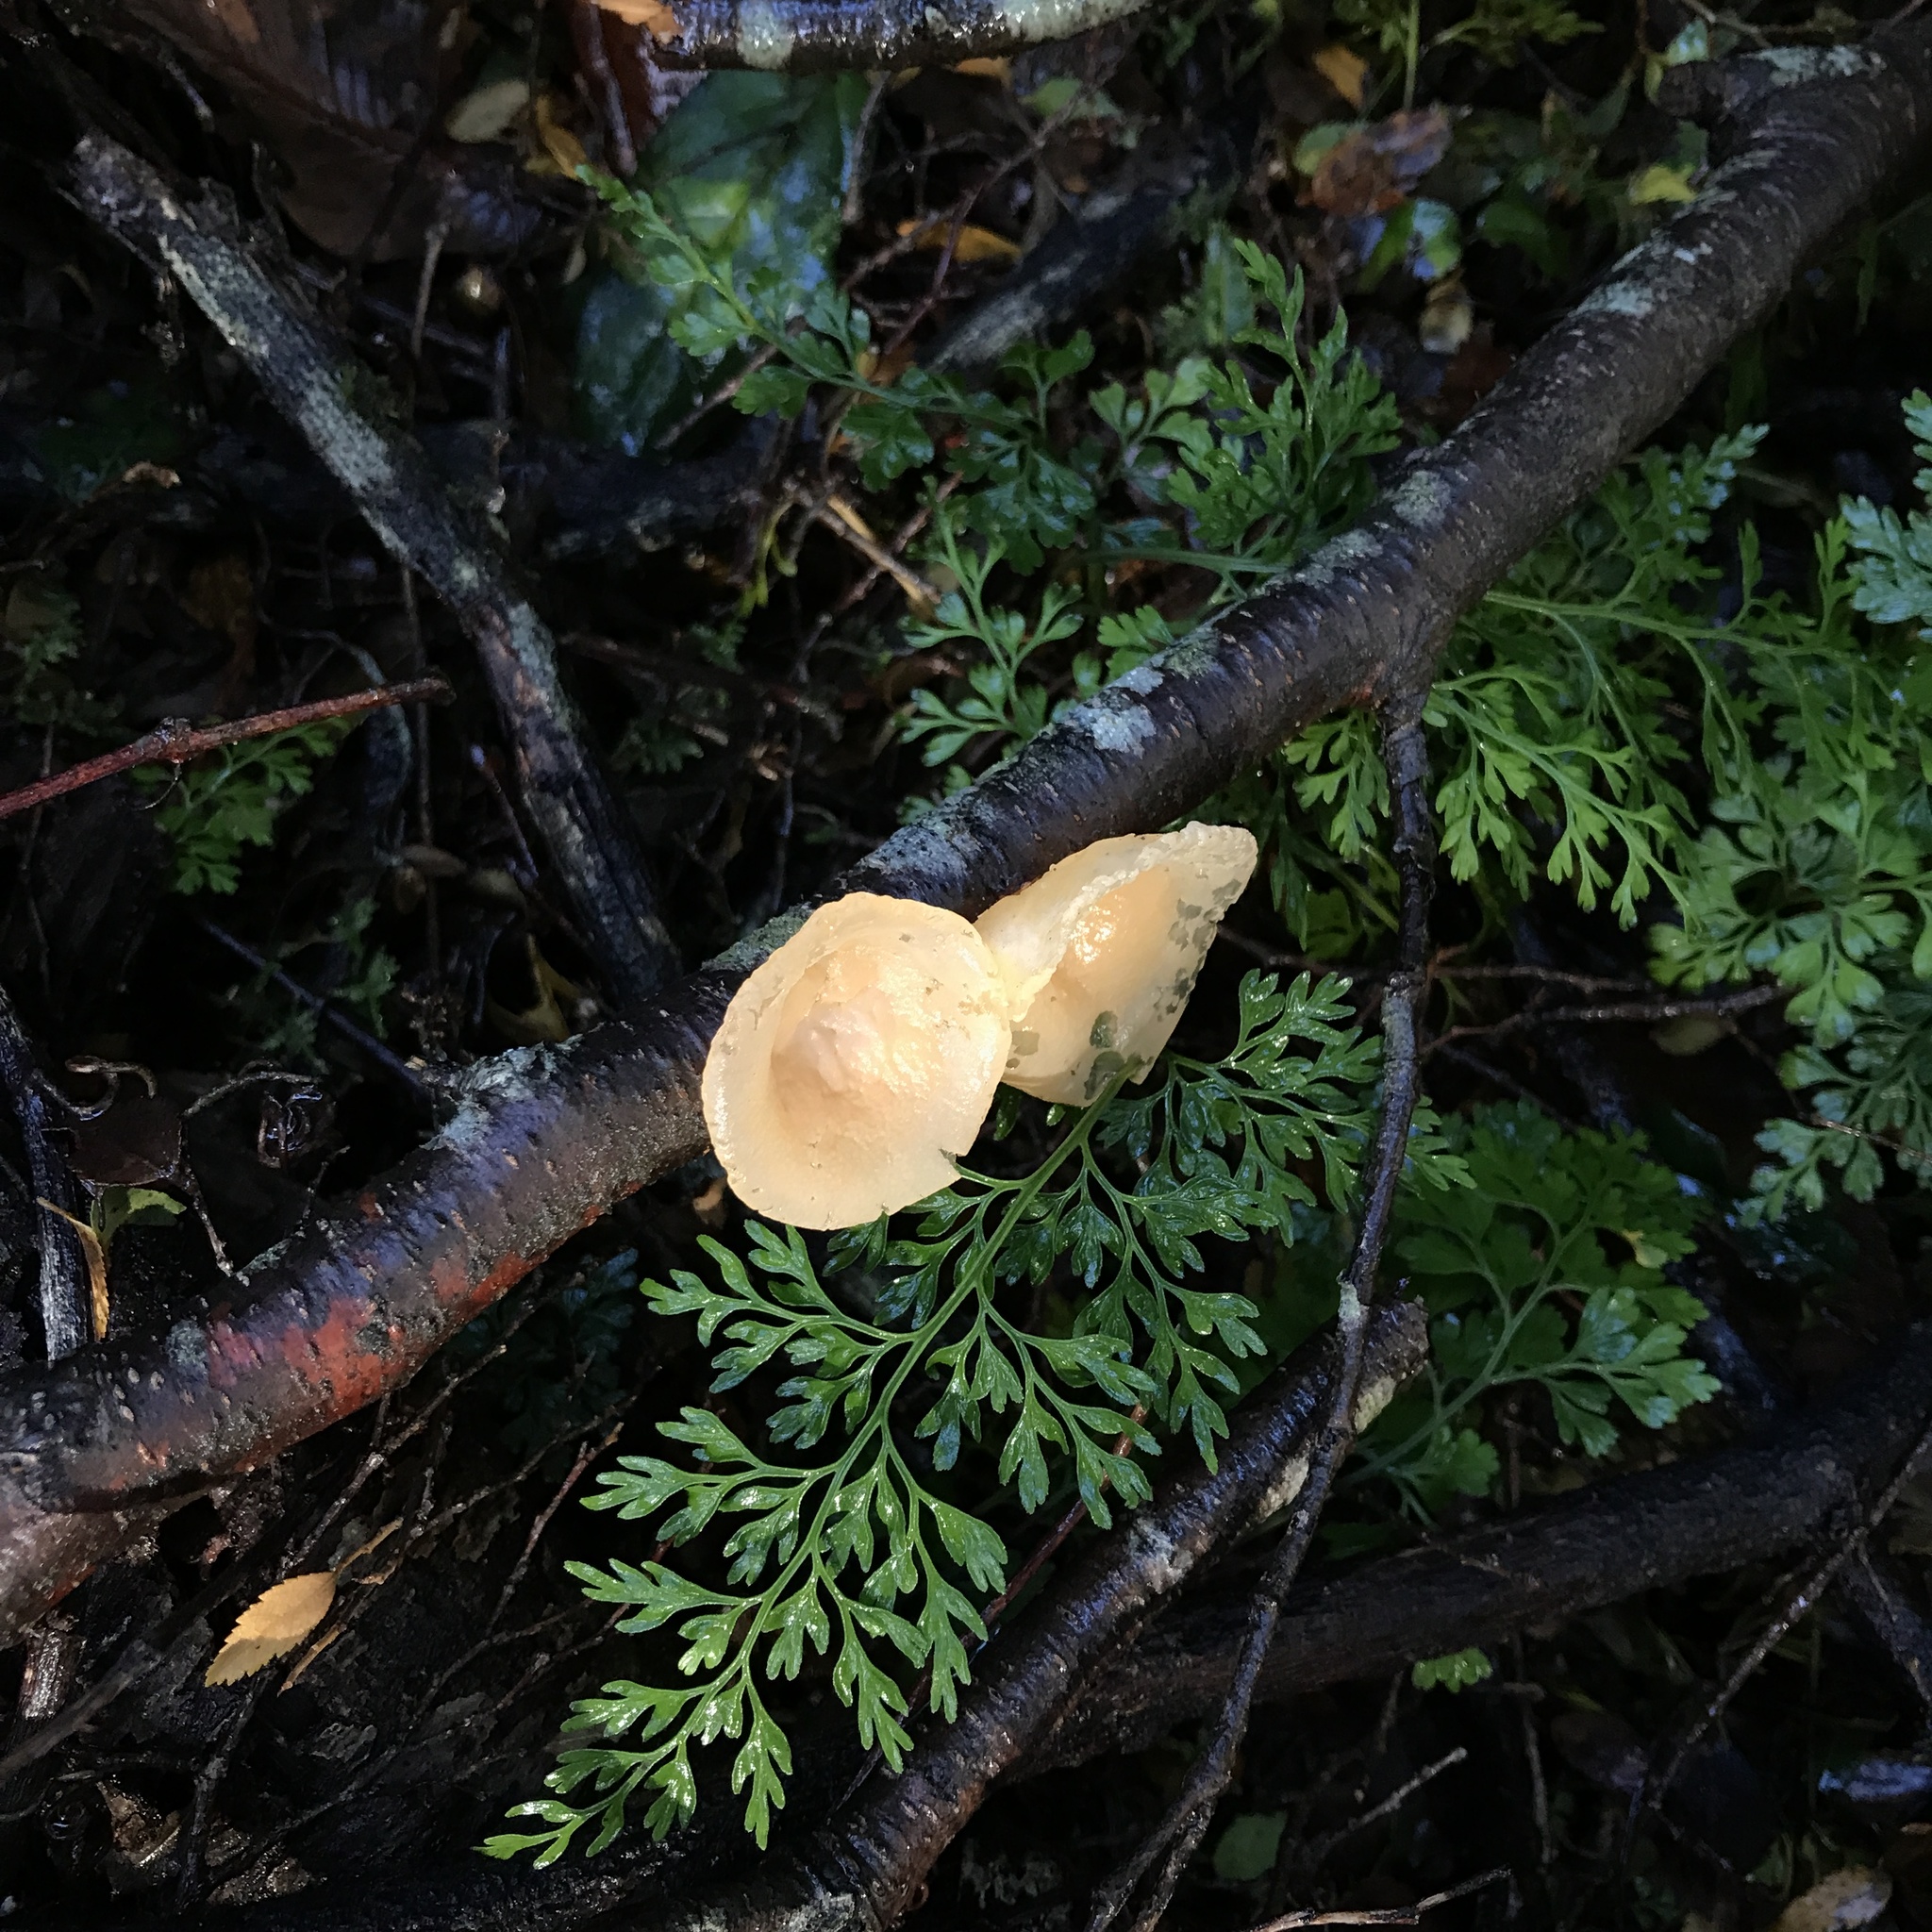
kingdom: Fungi
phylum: Basidiomycota
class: Agaricomycetes
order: Russulales
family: Stereaceae
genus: Aleurodiscus
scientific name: Aleurodiscus vitellinus
